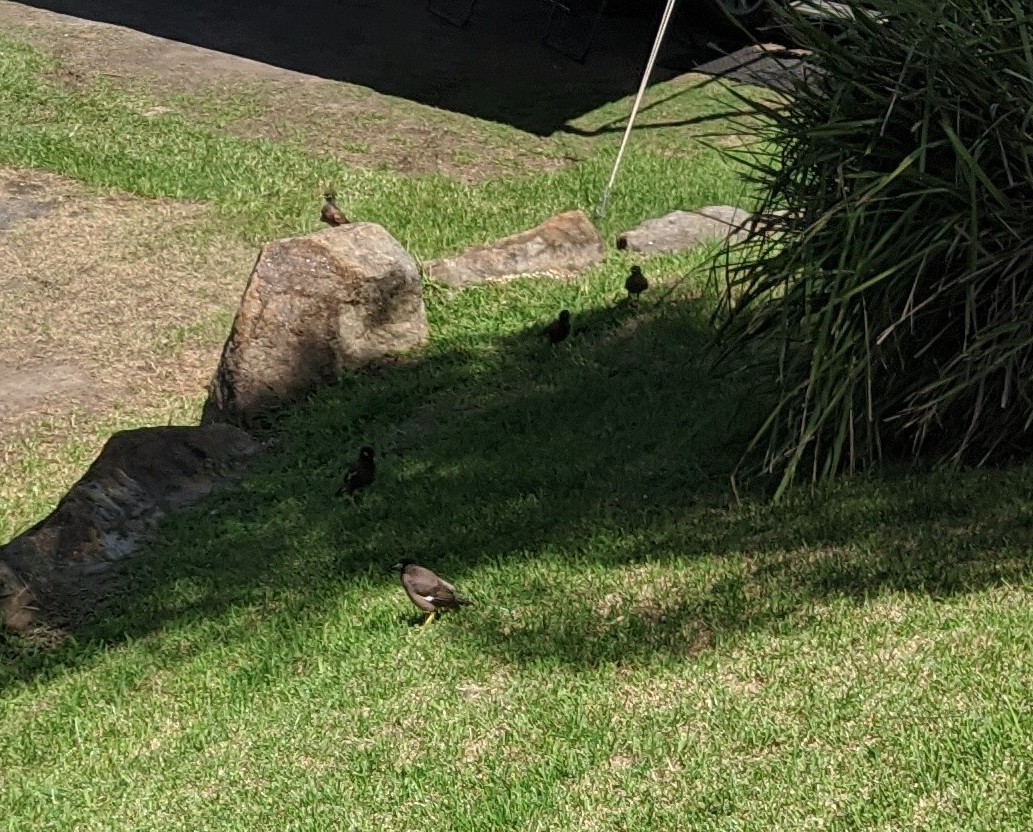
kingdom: Animalia
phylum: Chordata
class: Aves
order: Passeriformes
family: Sturnidae
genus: Acridotheres
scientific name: Acridotheres tristis
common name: Common myna
